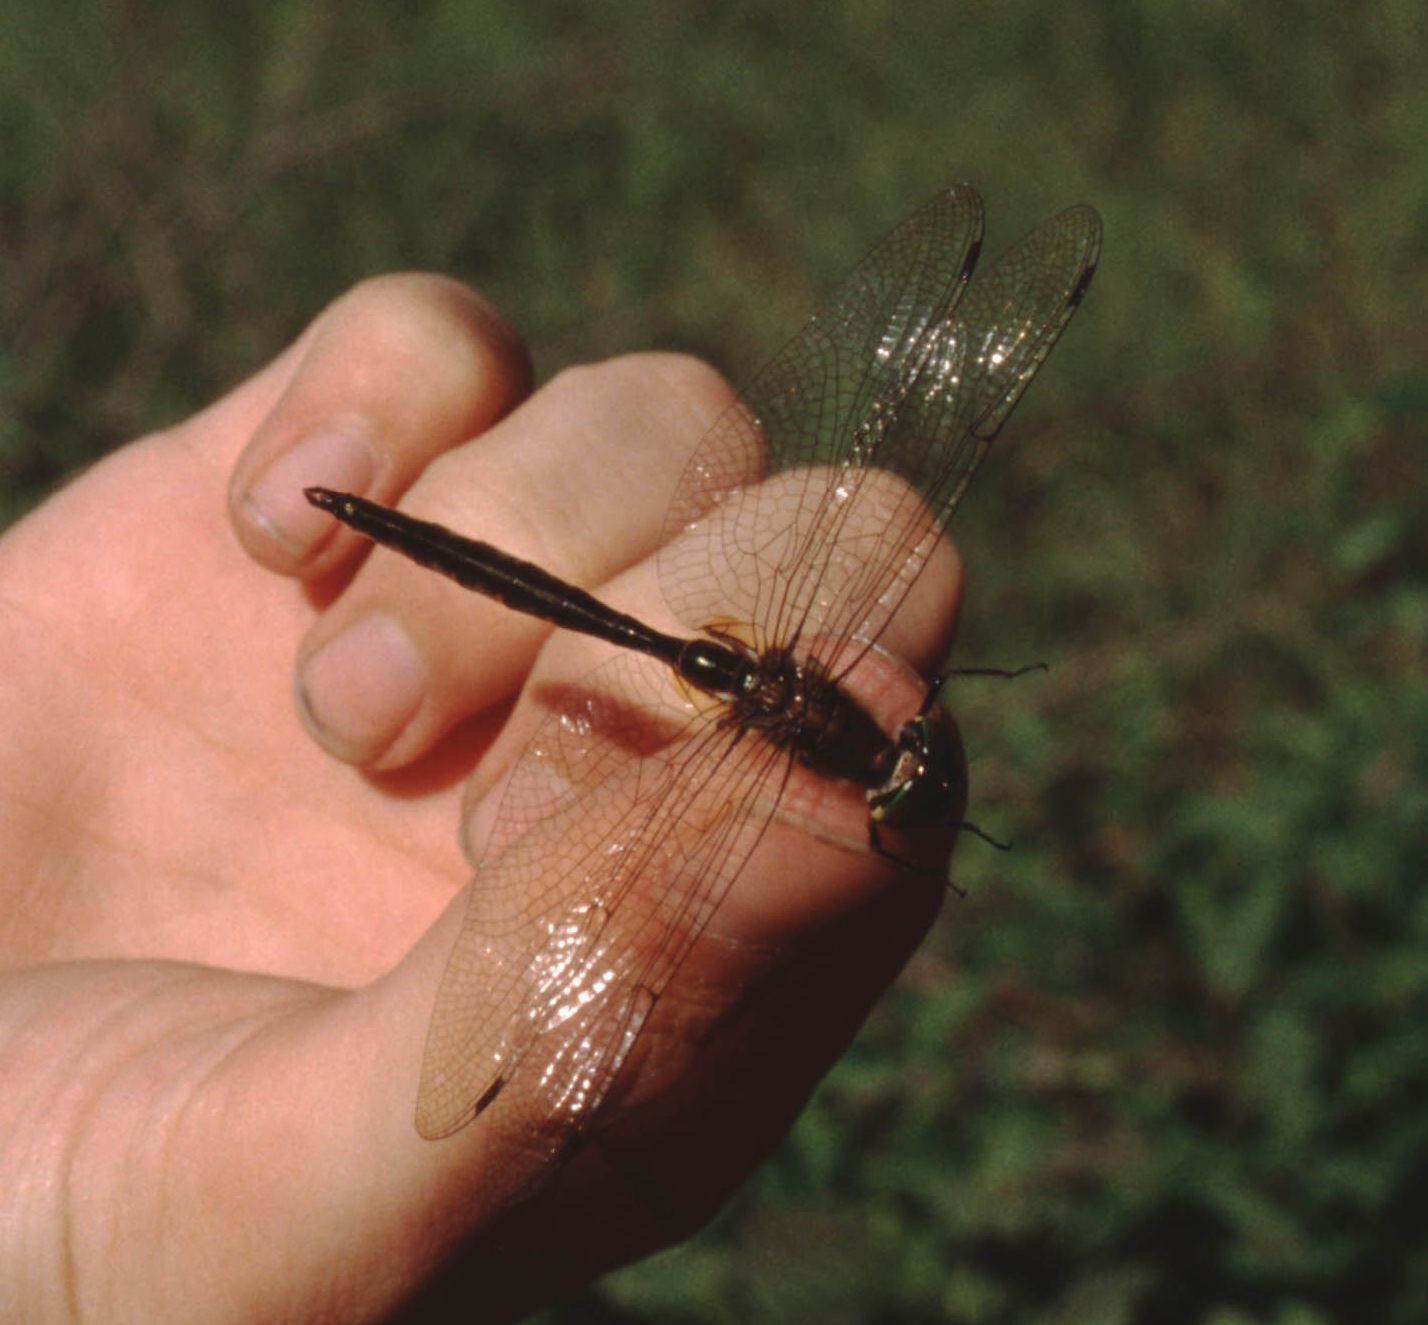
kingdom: Animalia
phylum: Arthropoda
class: Insecta
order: Odonata
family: Corduliidae
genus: Somatochlora
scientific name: Somatochlora flavomaculata
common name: Yellow-spotted emerald
